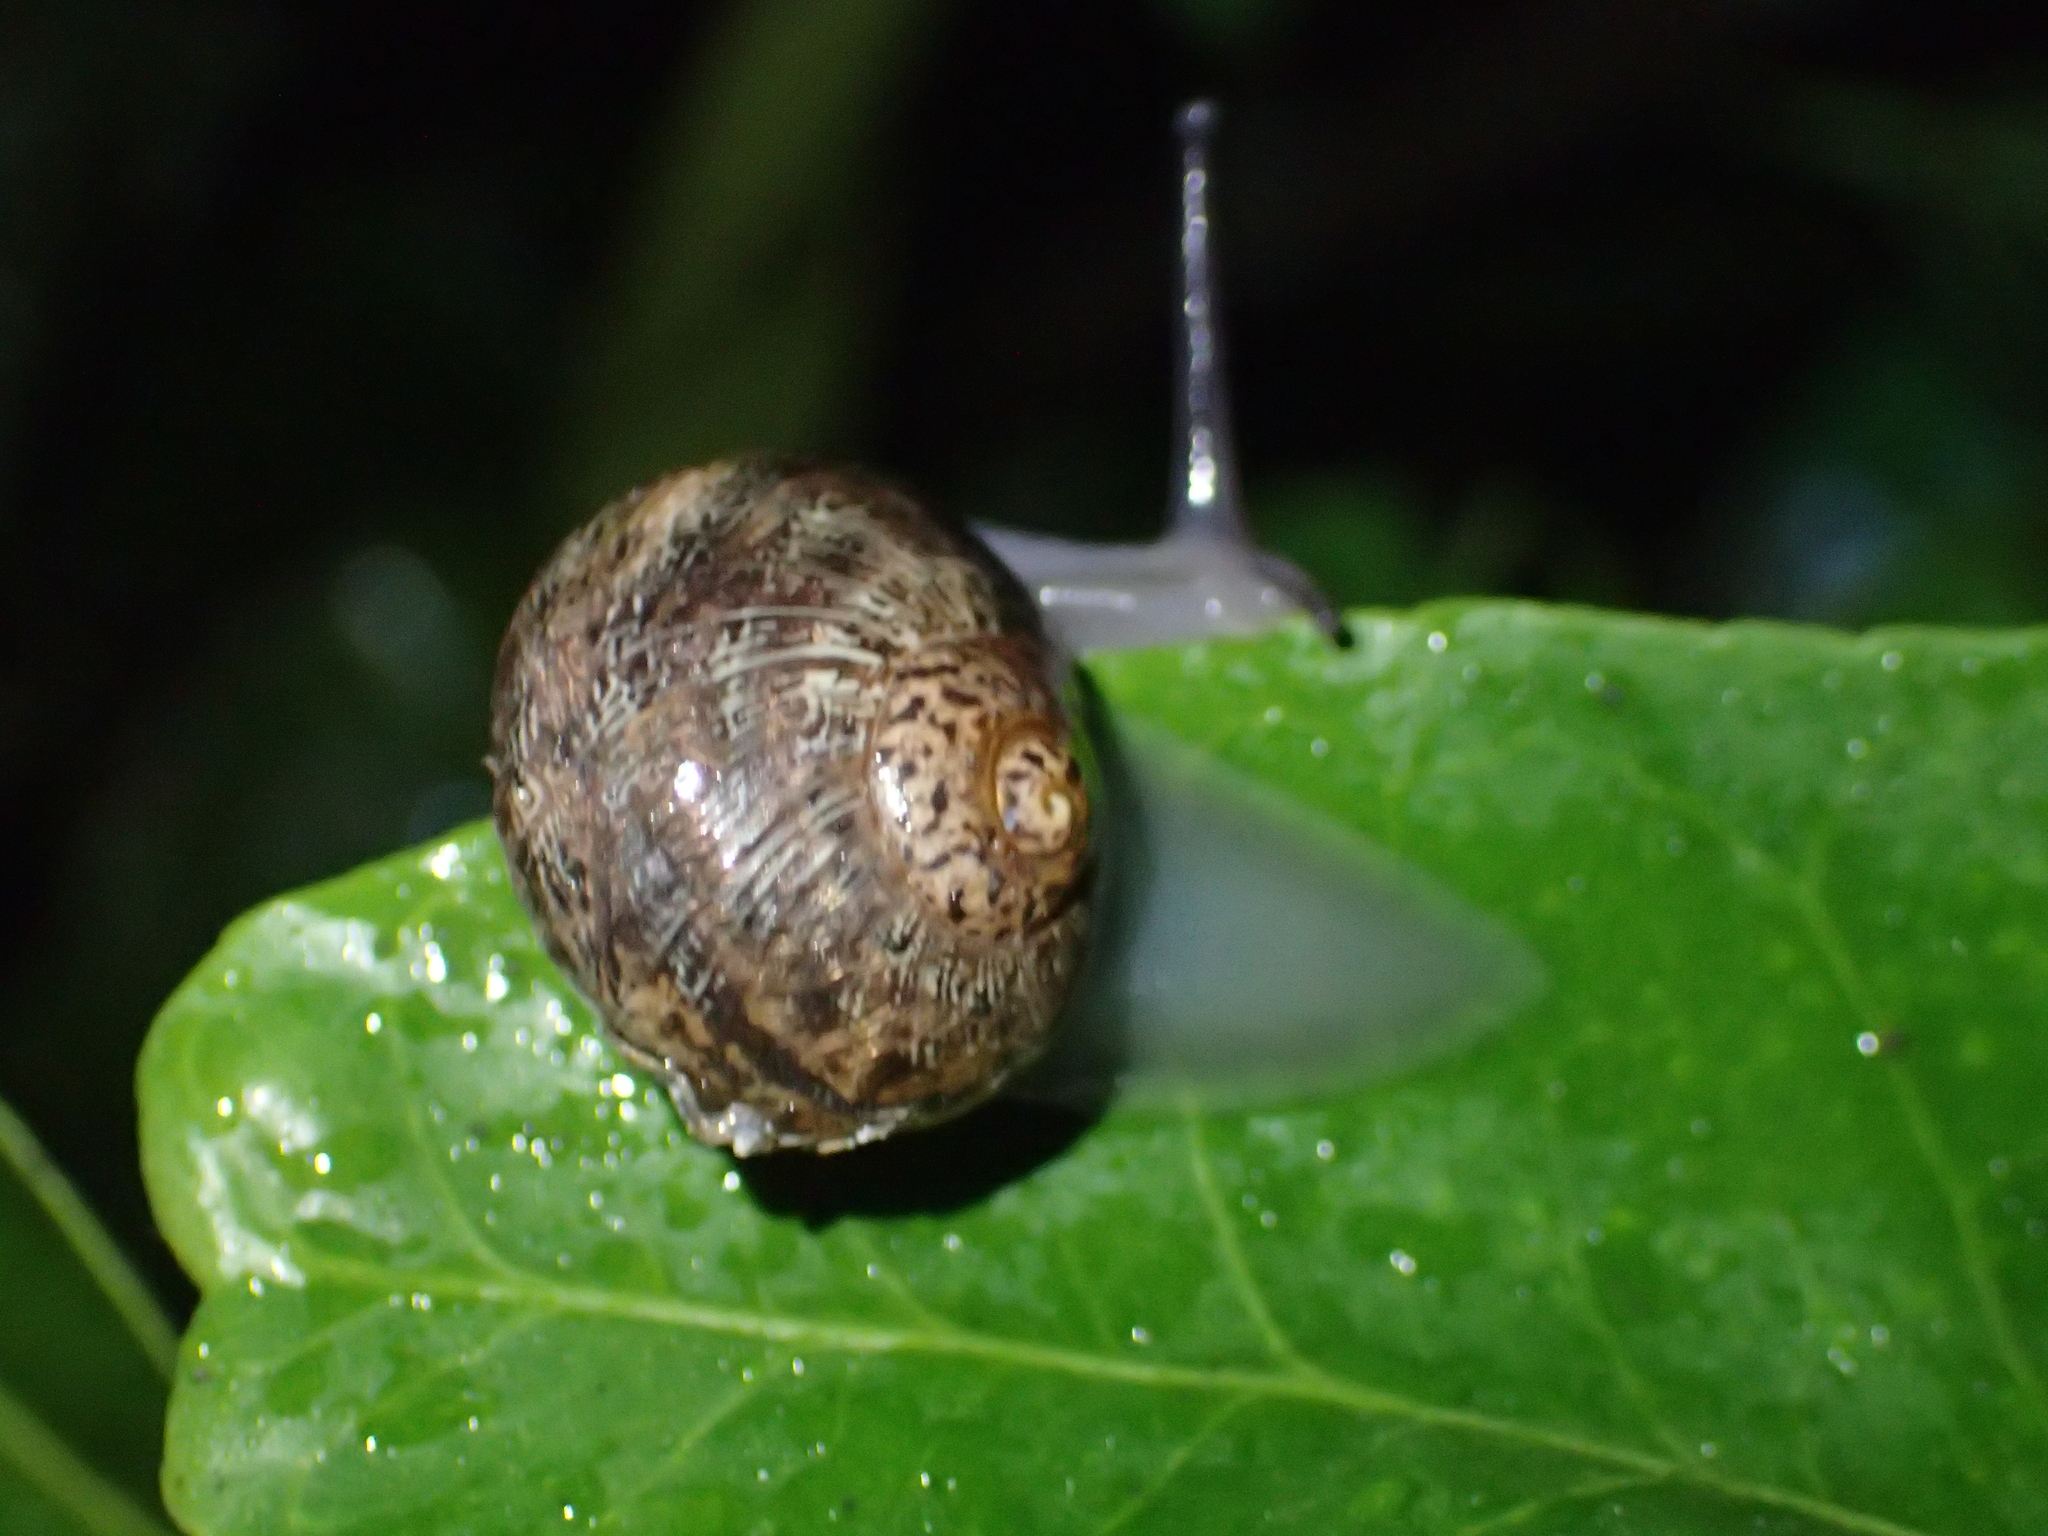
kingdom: Animalia
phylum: Mollusca
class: Gastropoda
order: Stylommatophora
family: Helicidae
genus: Cornu
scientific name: Cornu aspersum
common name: Brown garden snail
